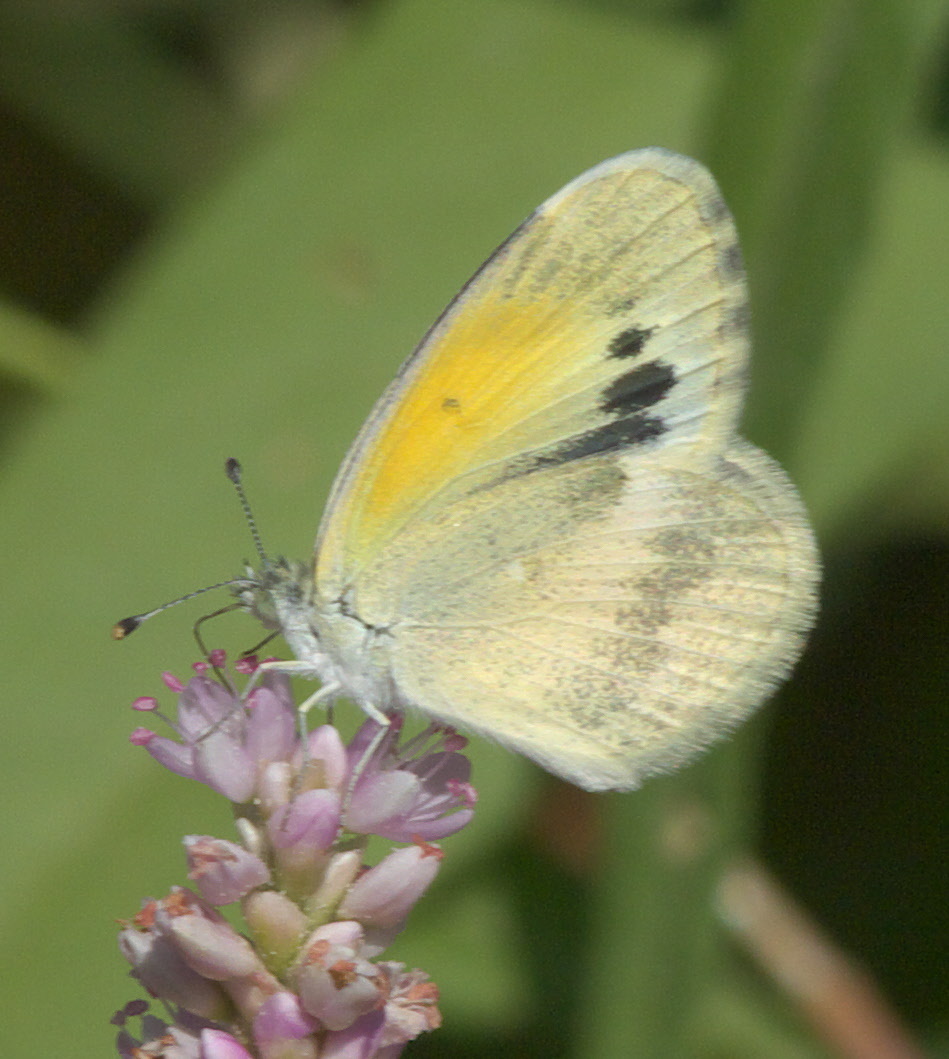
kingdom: Animalia
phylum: Arthropoda
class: Insecta
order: Lepidoptera
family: Pieridae
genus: Nathalis
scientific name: Nathalis iole
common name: Dainty sulphur
